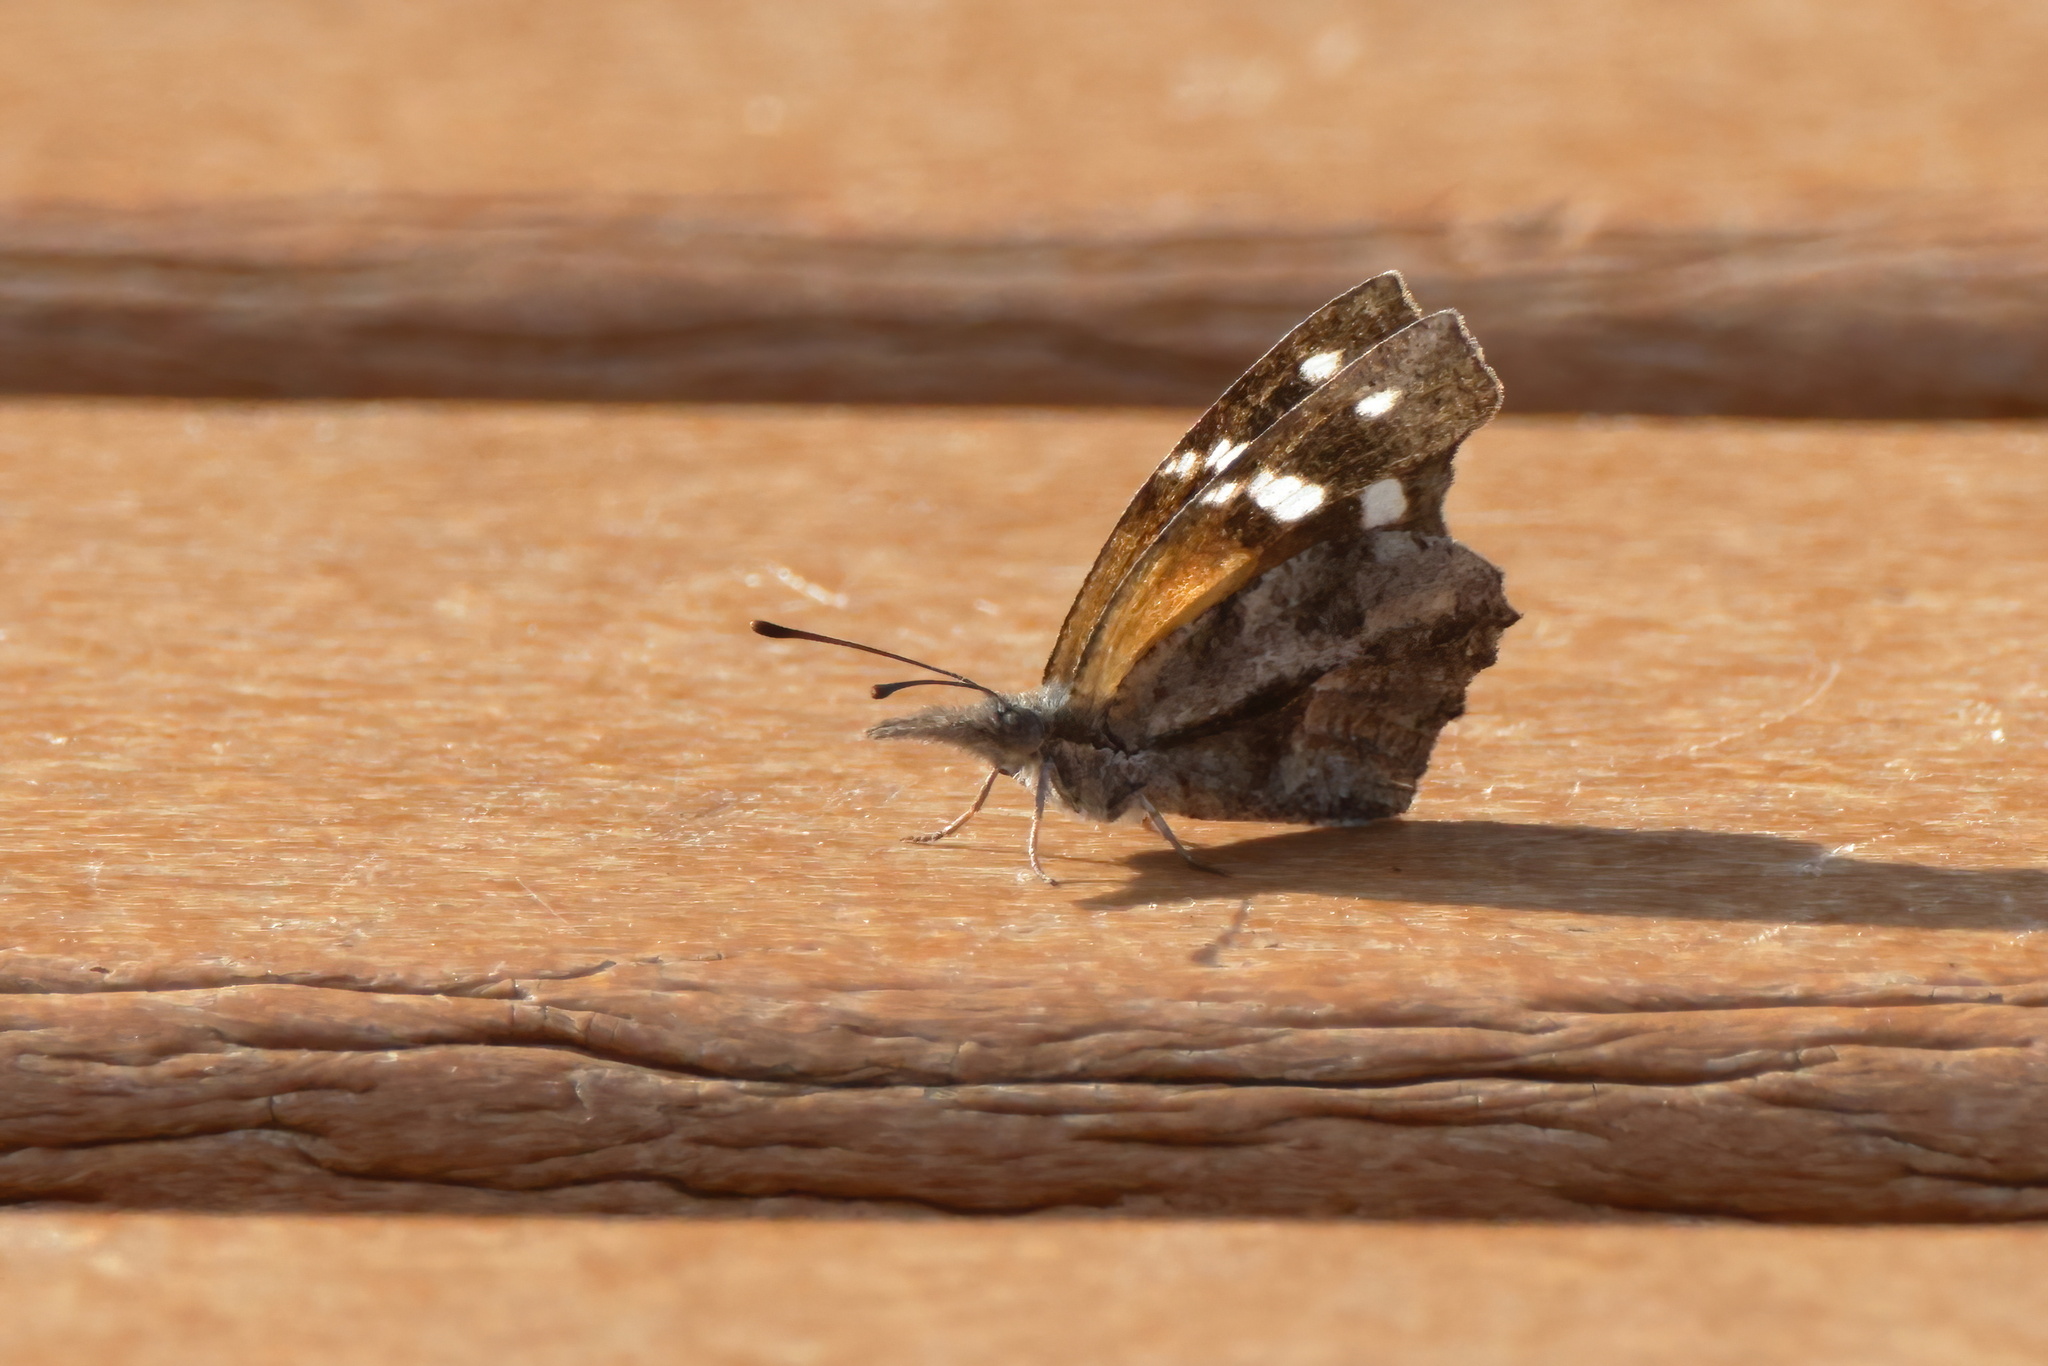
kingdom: Animalia
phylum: Arthropoda
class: Insecta
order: Lepidoptera
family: Nymphalidae
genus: Libytheana
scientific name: Libytheana carinenta
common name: American snout
